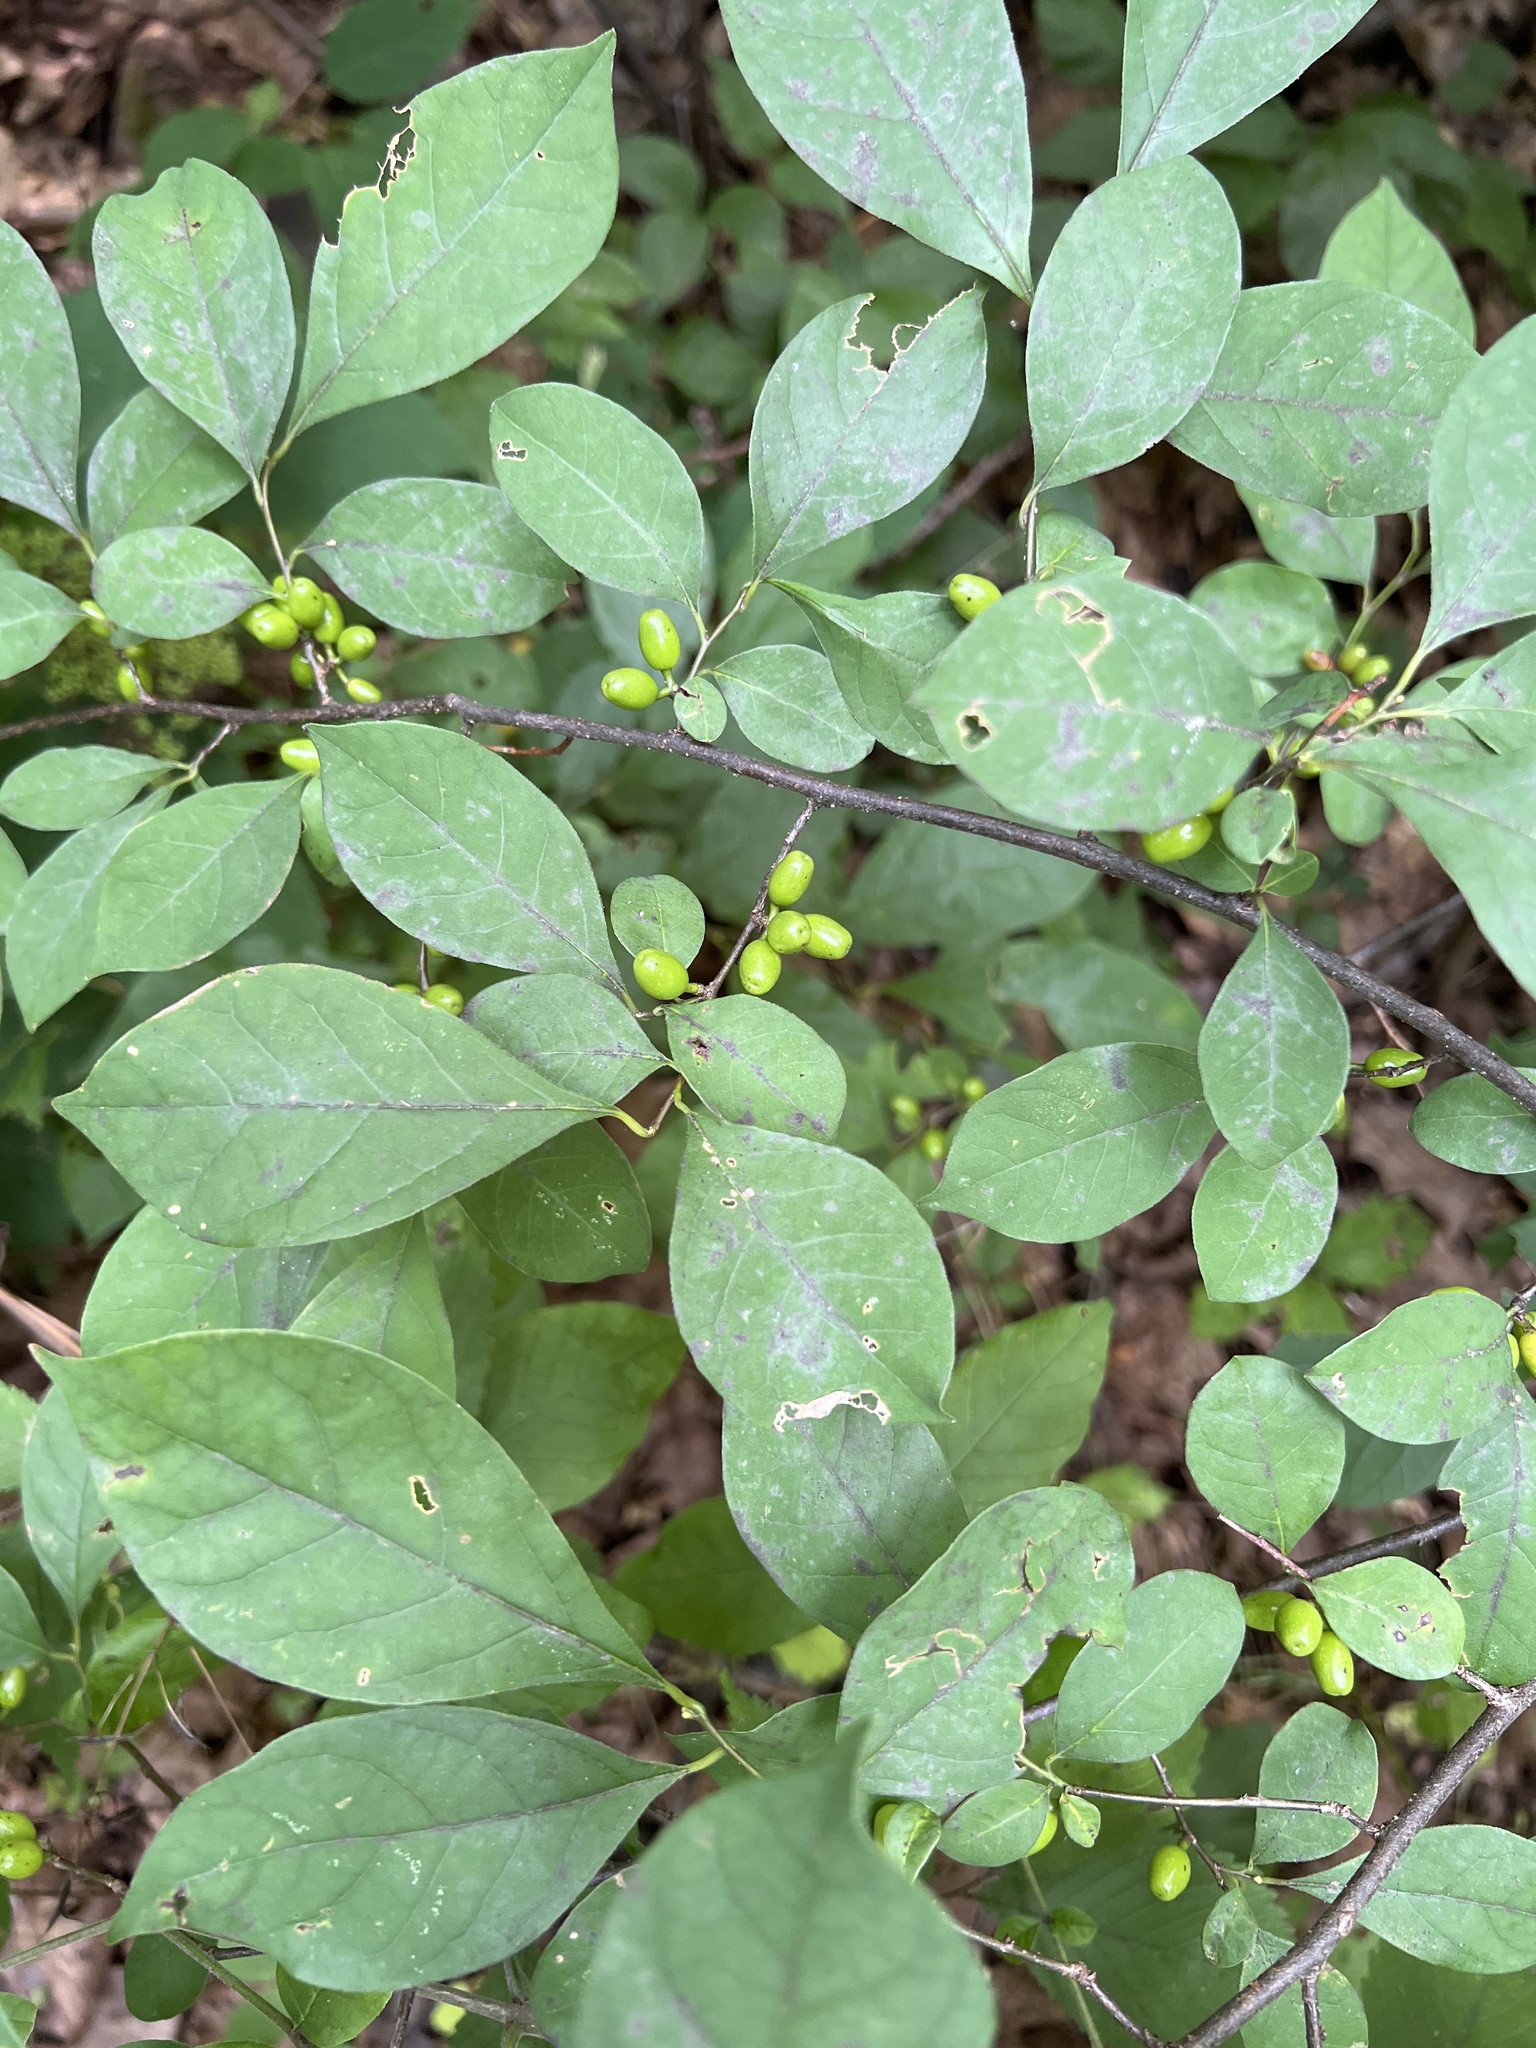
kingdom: Plantae
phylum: Tracheophyta
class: Magnoliopsida
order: Laurales
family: Lauraceae
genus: Lindera
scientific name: Lindera benzoin
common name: Spicebush
